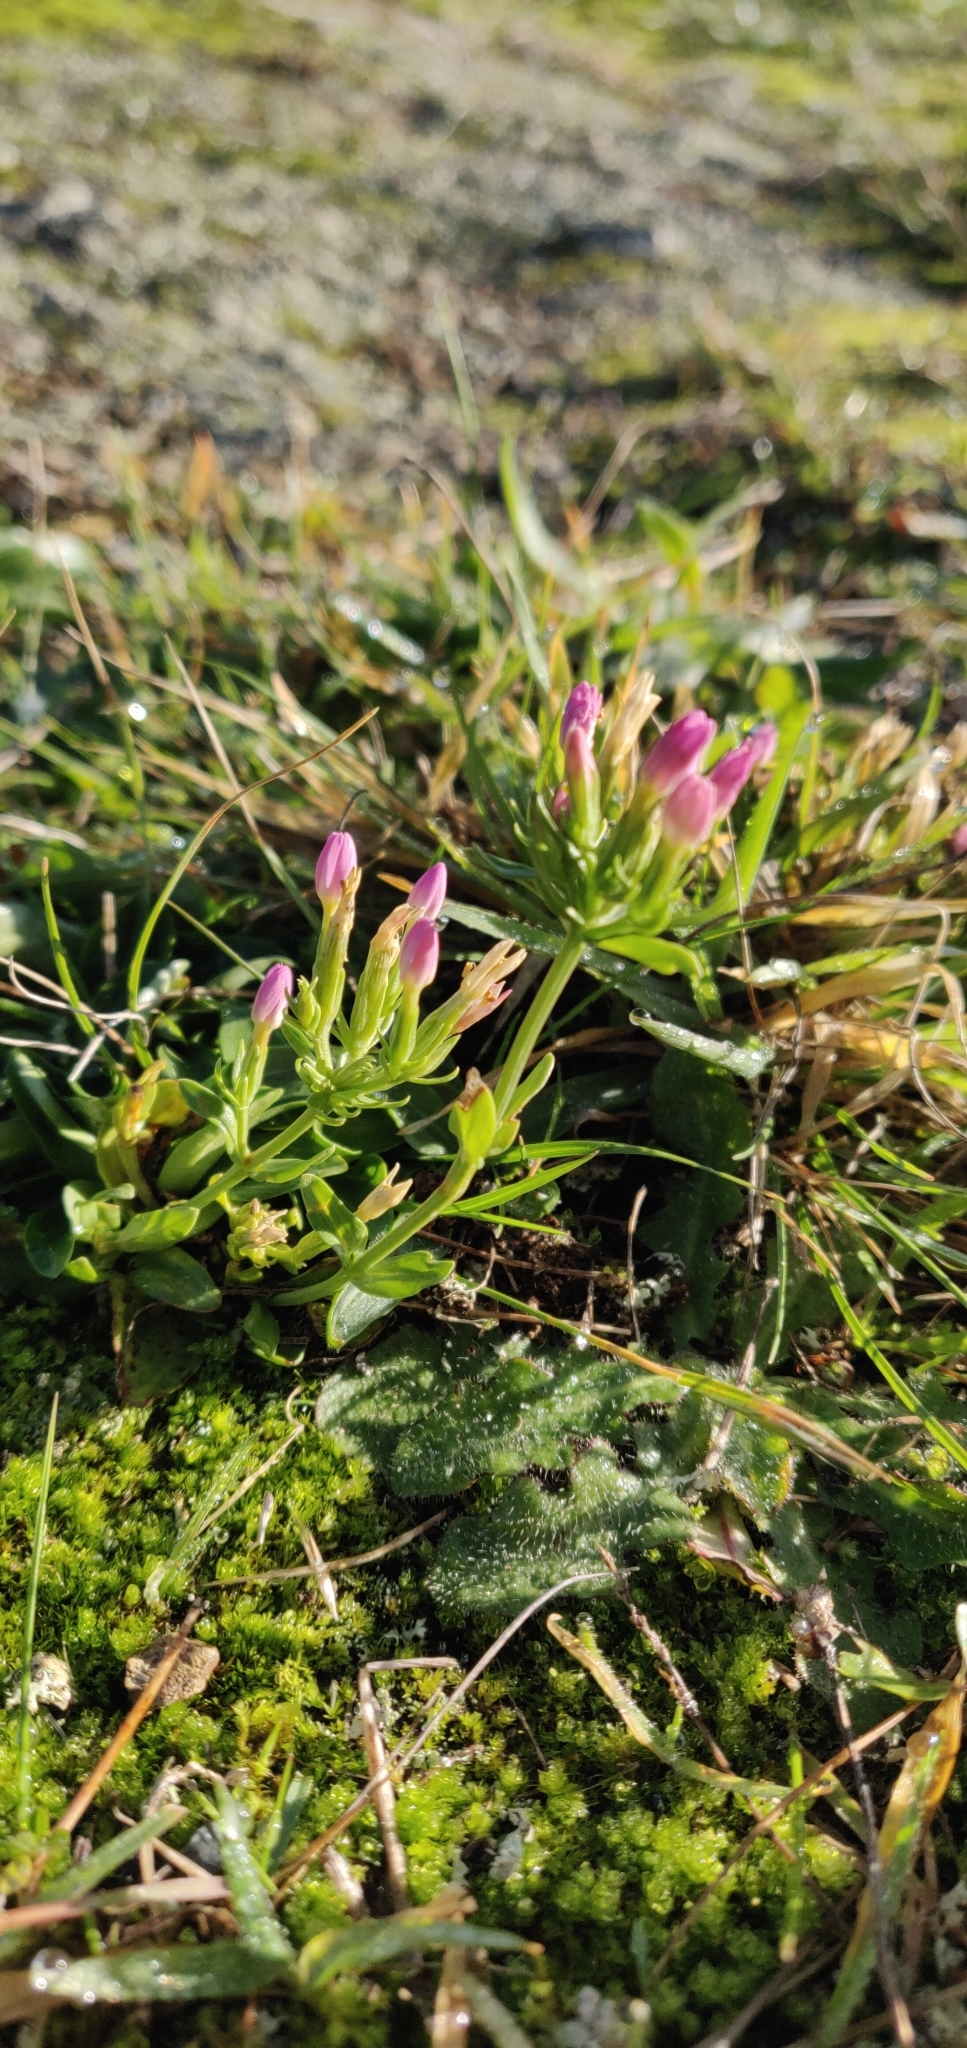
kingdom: Plantae
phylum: Tracheophyta
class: Magnoliopsida
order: Gentianales
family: Gentianaceae
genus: Centaurium
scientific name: Centaurium erythraea
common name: Common centaury
